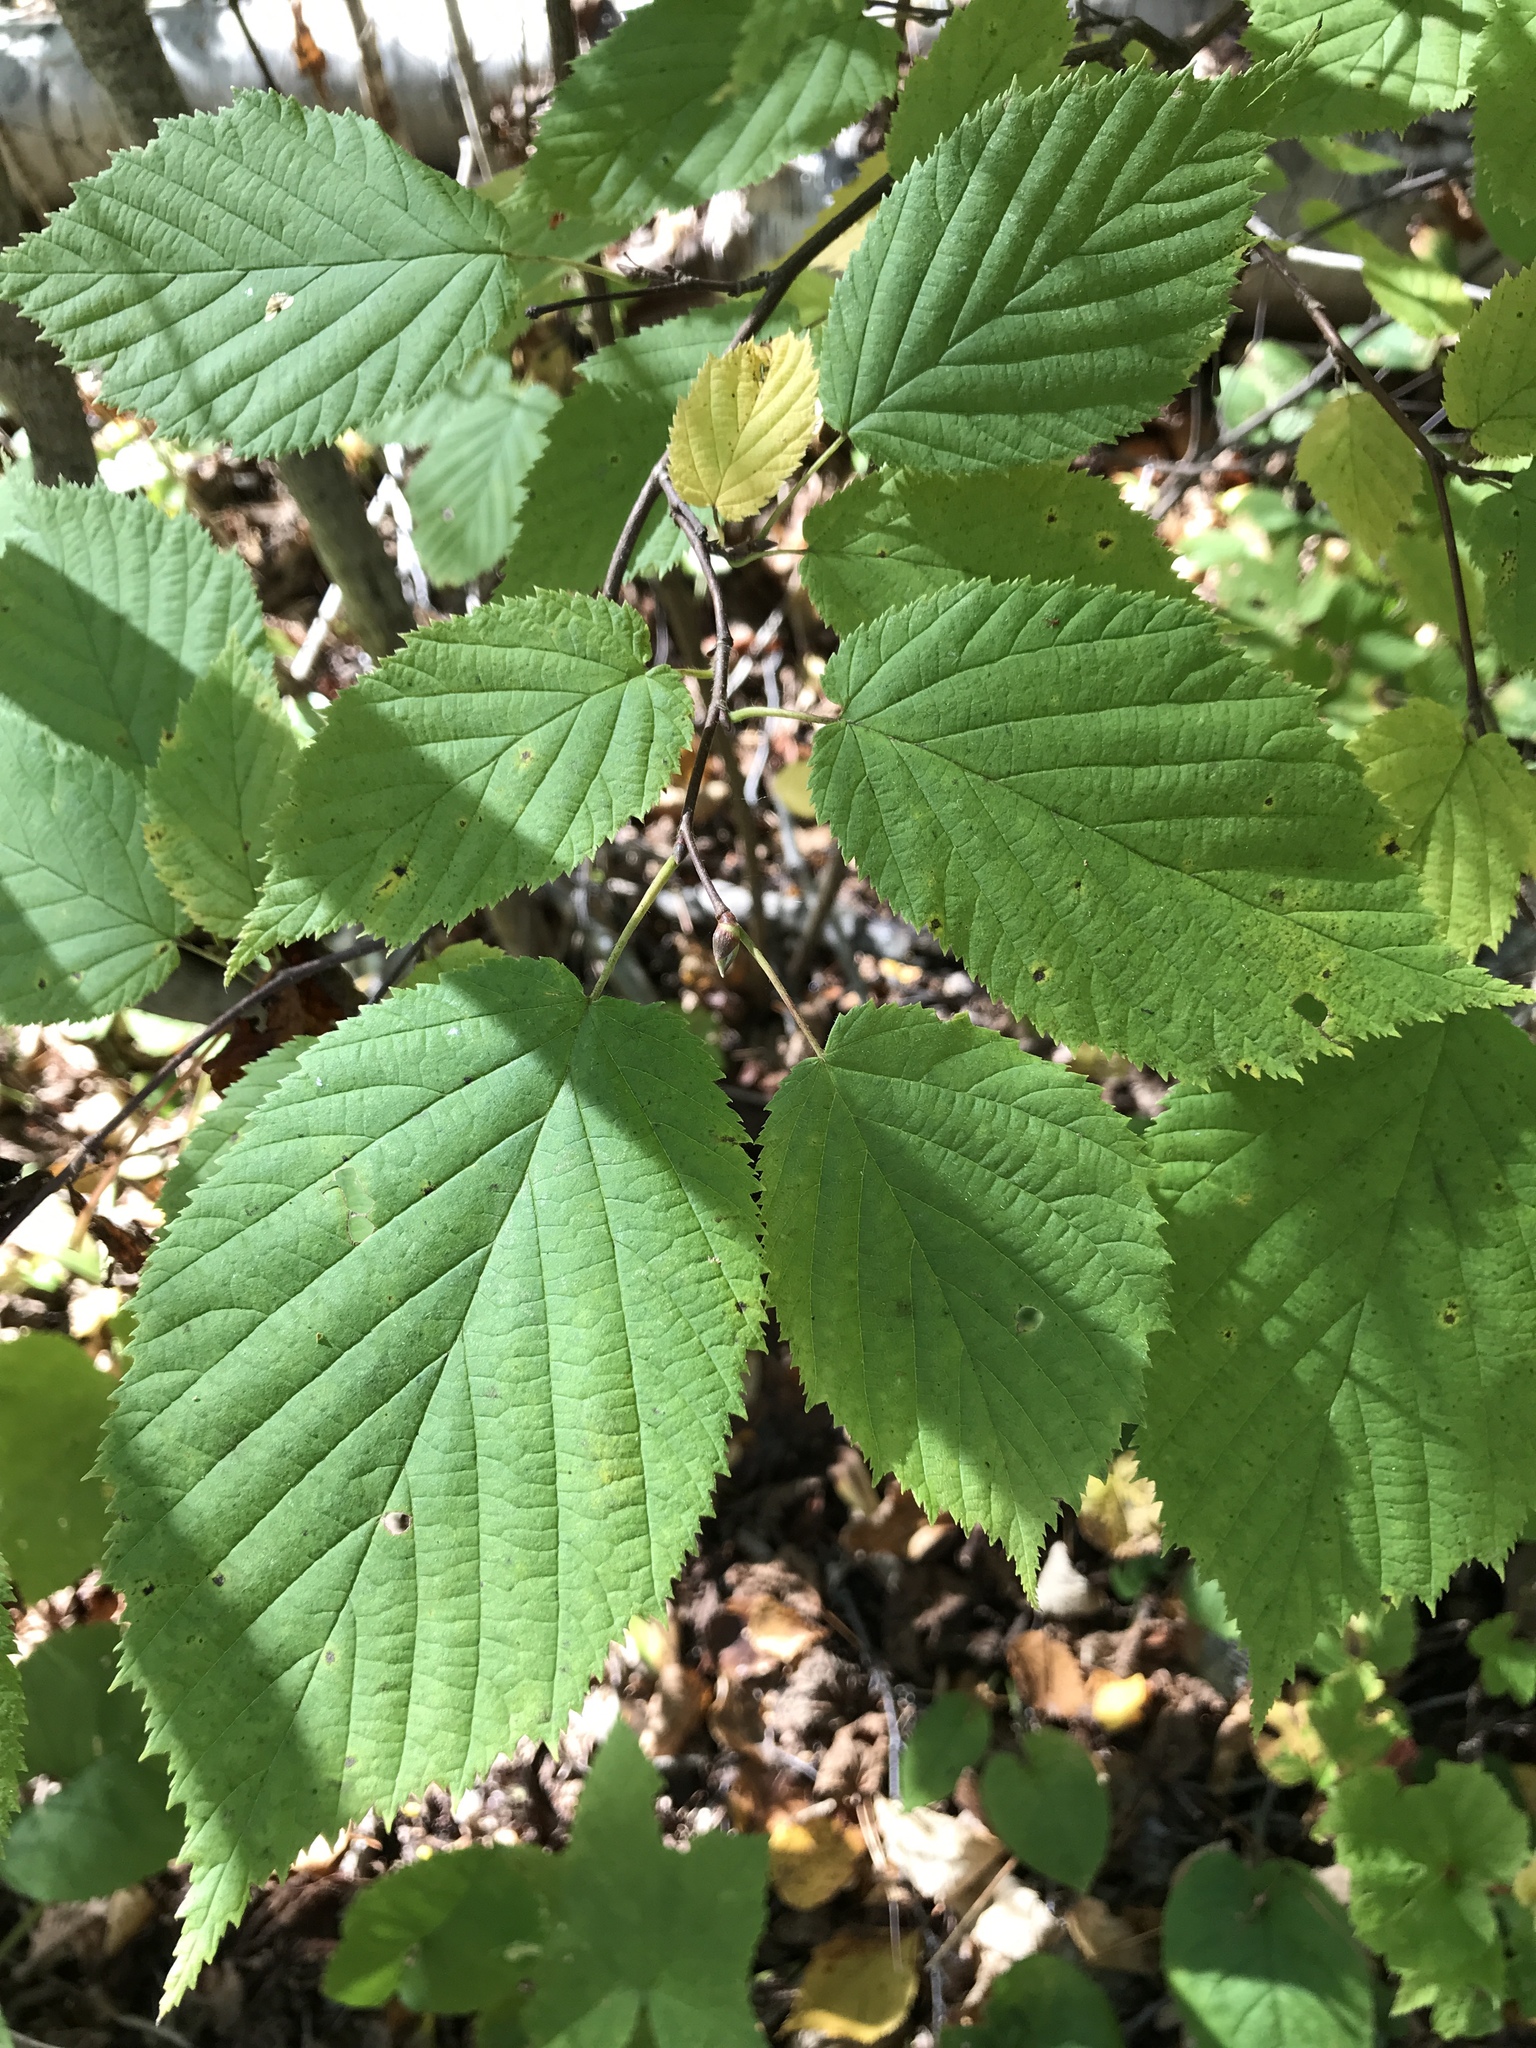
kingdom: Plantae
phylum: Tracheophyta
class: Magnoliopsida
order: Fagales
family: Betulaceae
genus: Corylus
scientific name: Corylus cornuta
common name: Beaked hazel
